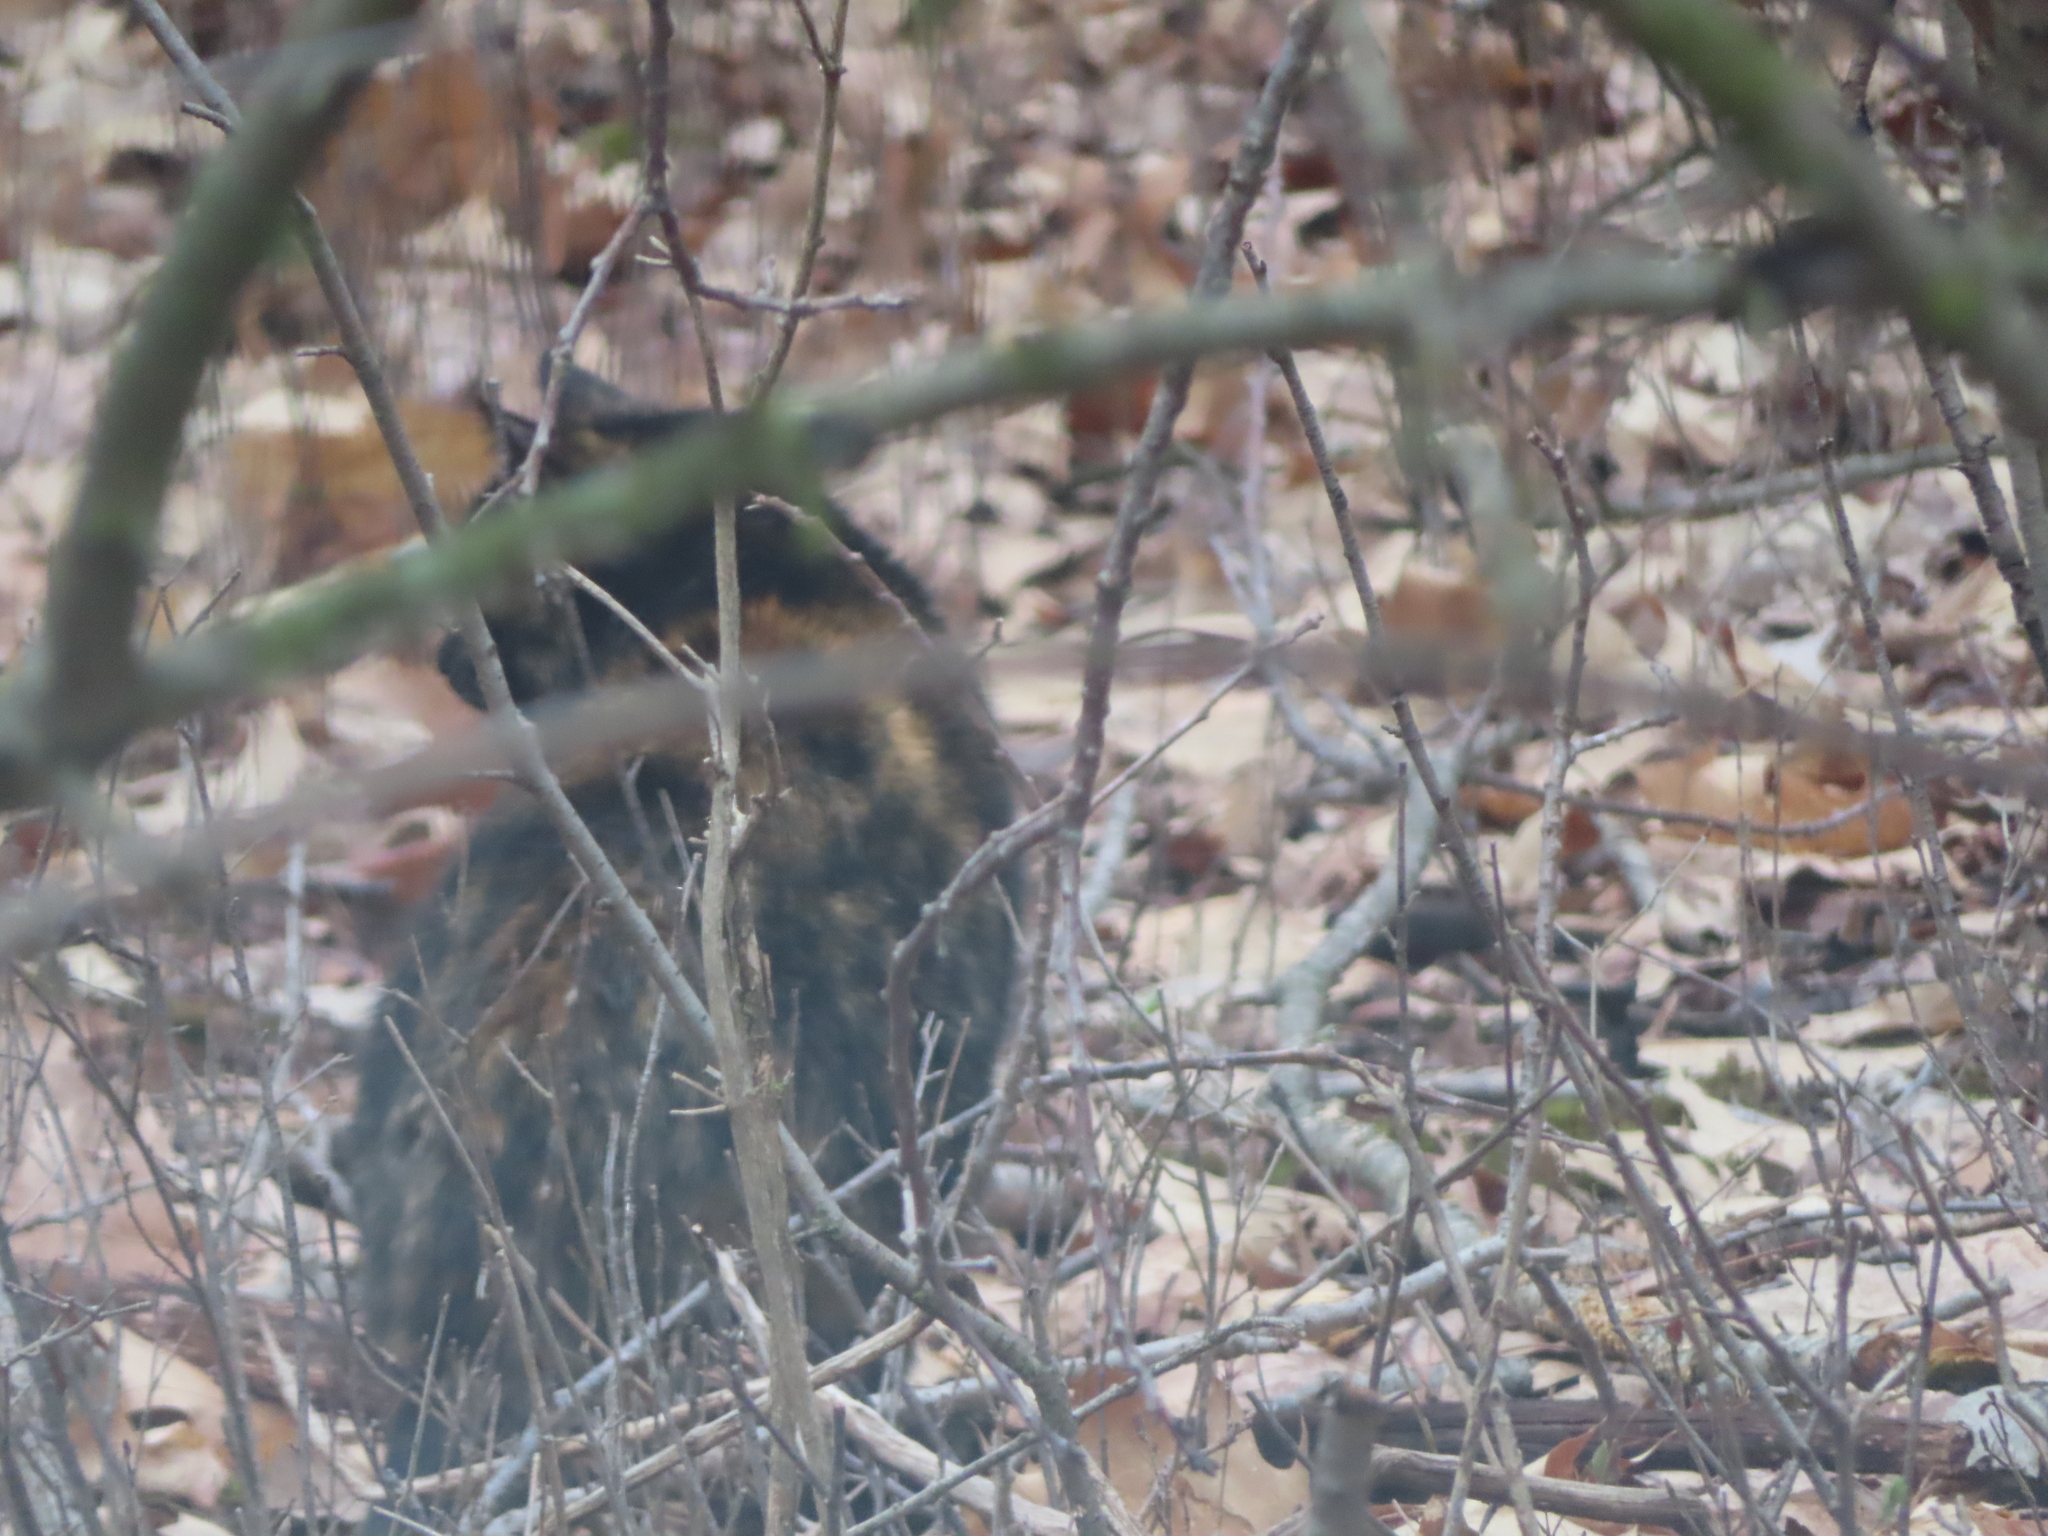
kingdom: Animalia
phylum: Chordata
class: Mammalia
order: Carnivora
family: Felidae
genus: Felis
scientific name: Felis catus
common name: Domestic cat
